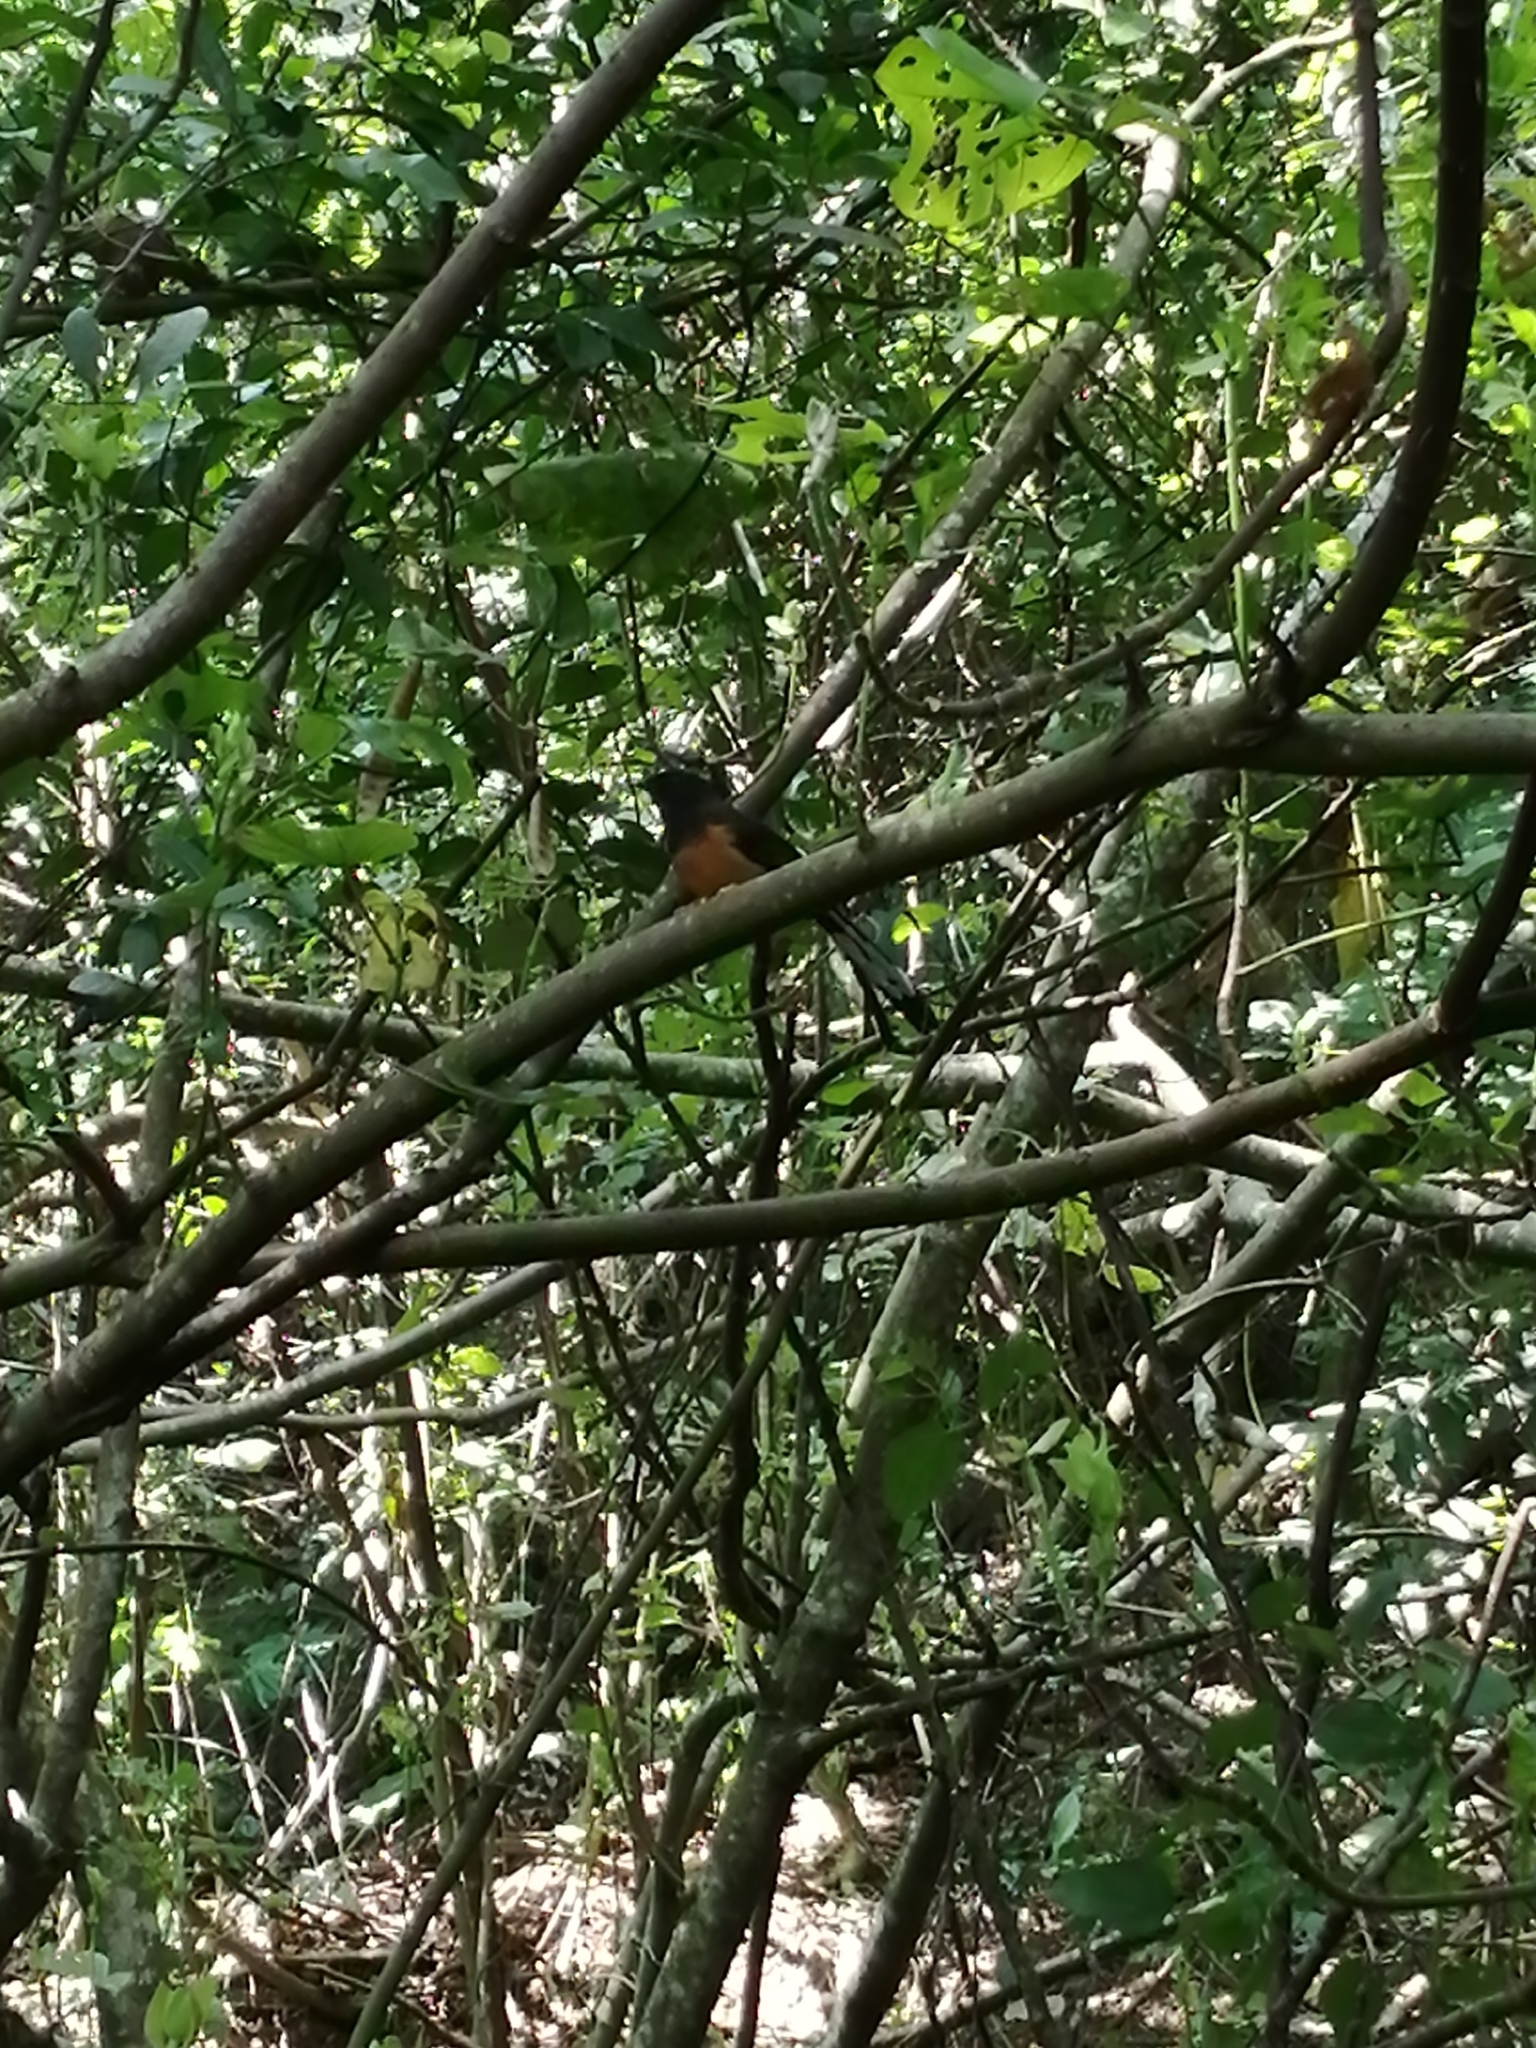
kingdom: Animalia
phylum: Chordata
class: Aves
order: Passeriformes
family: Muscicapidae
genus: Copsychus
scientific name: Copsychus malabaricus
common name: White-rumped shama
